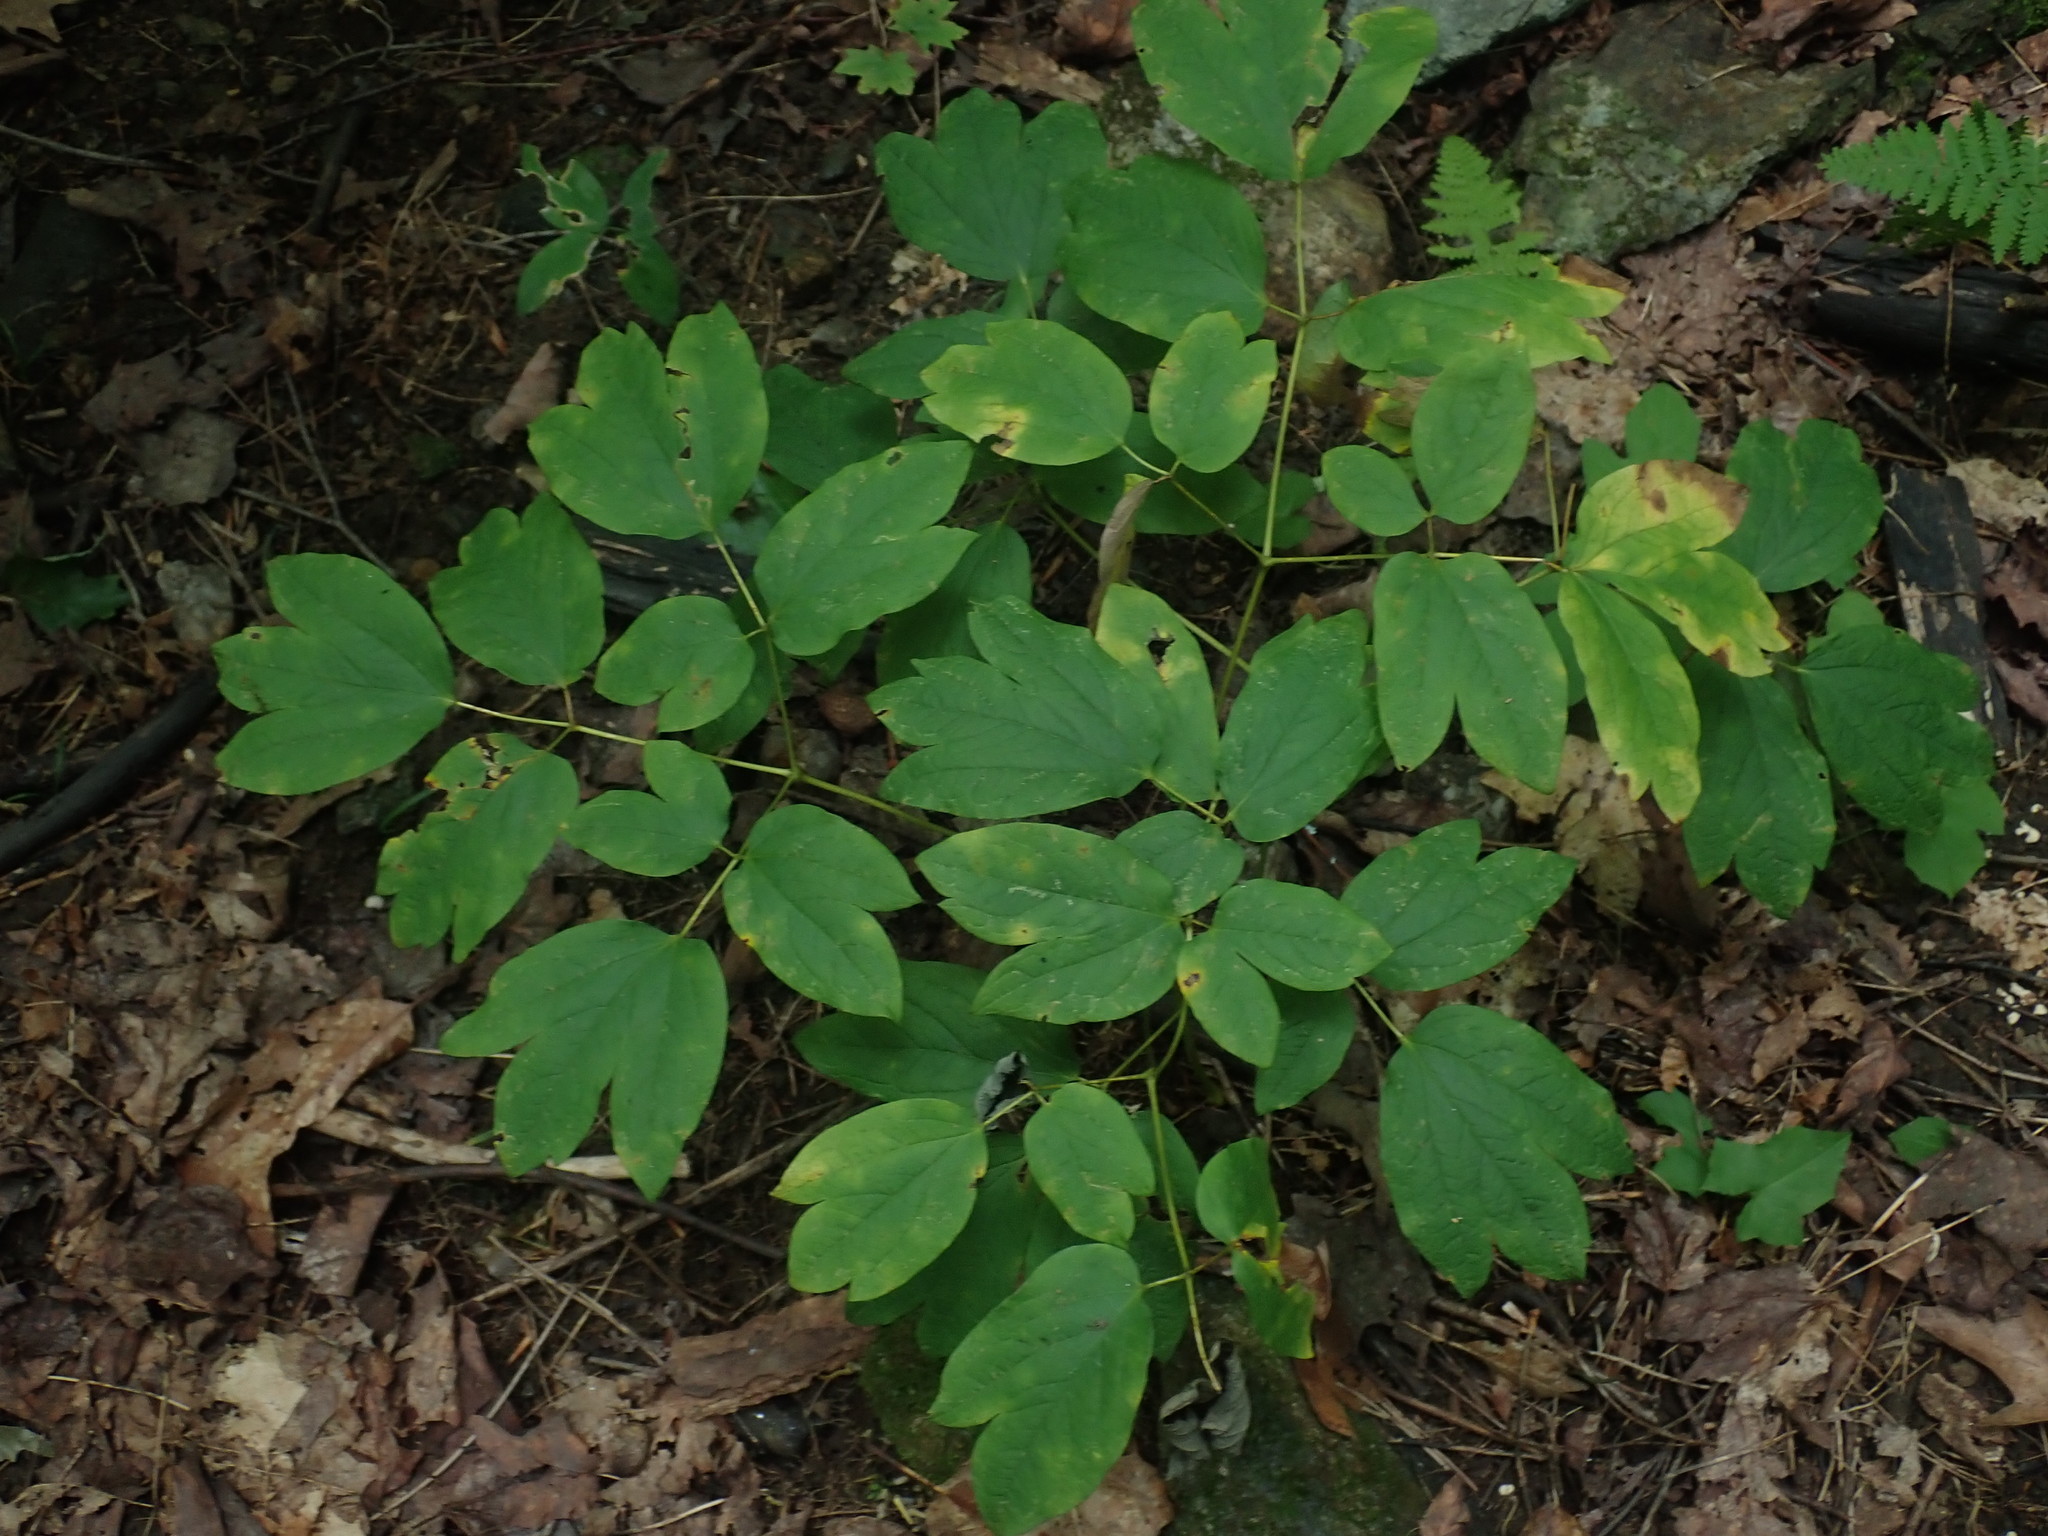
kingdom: Plantae
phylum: Tracheophyta
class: Magnoliopsida
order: Ranunculales
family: Berberidaceae
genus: Caulophyllum
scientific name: Caulophyllum
